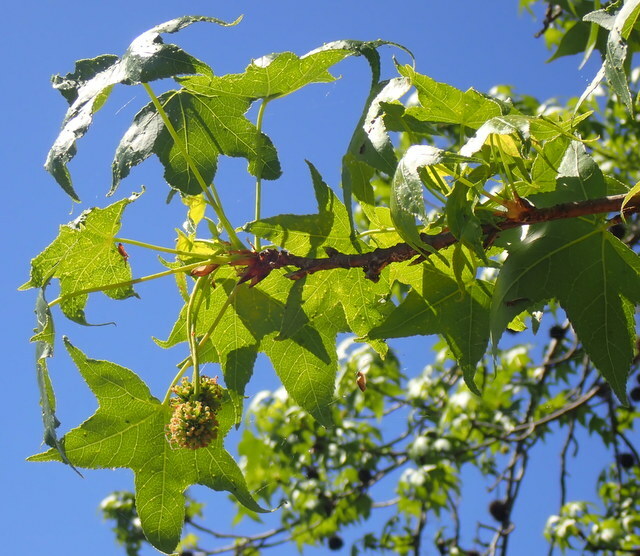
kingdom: Plantae
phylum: Tracheophyta
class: Magnoliopsida
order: Saxifragales
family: Altingiaceae
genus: Liquidambar
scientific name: Liquidambar styraciflua
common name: Sweet gum
